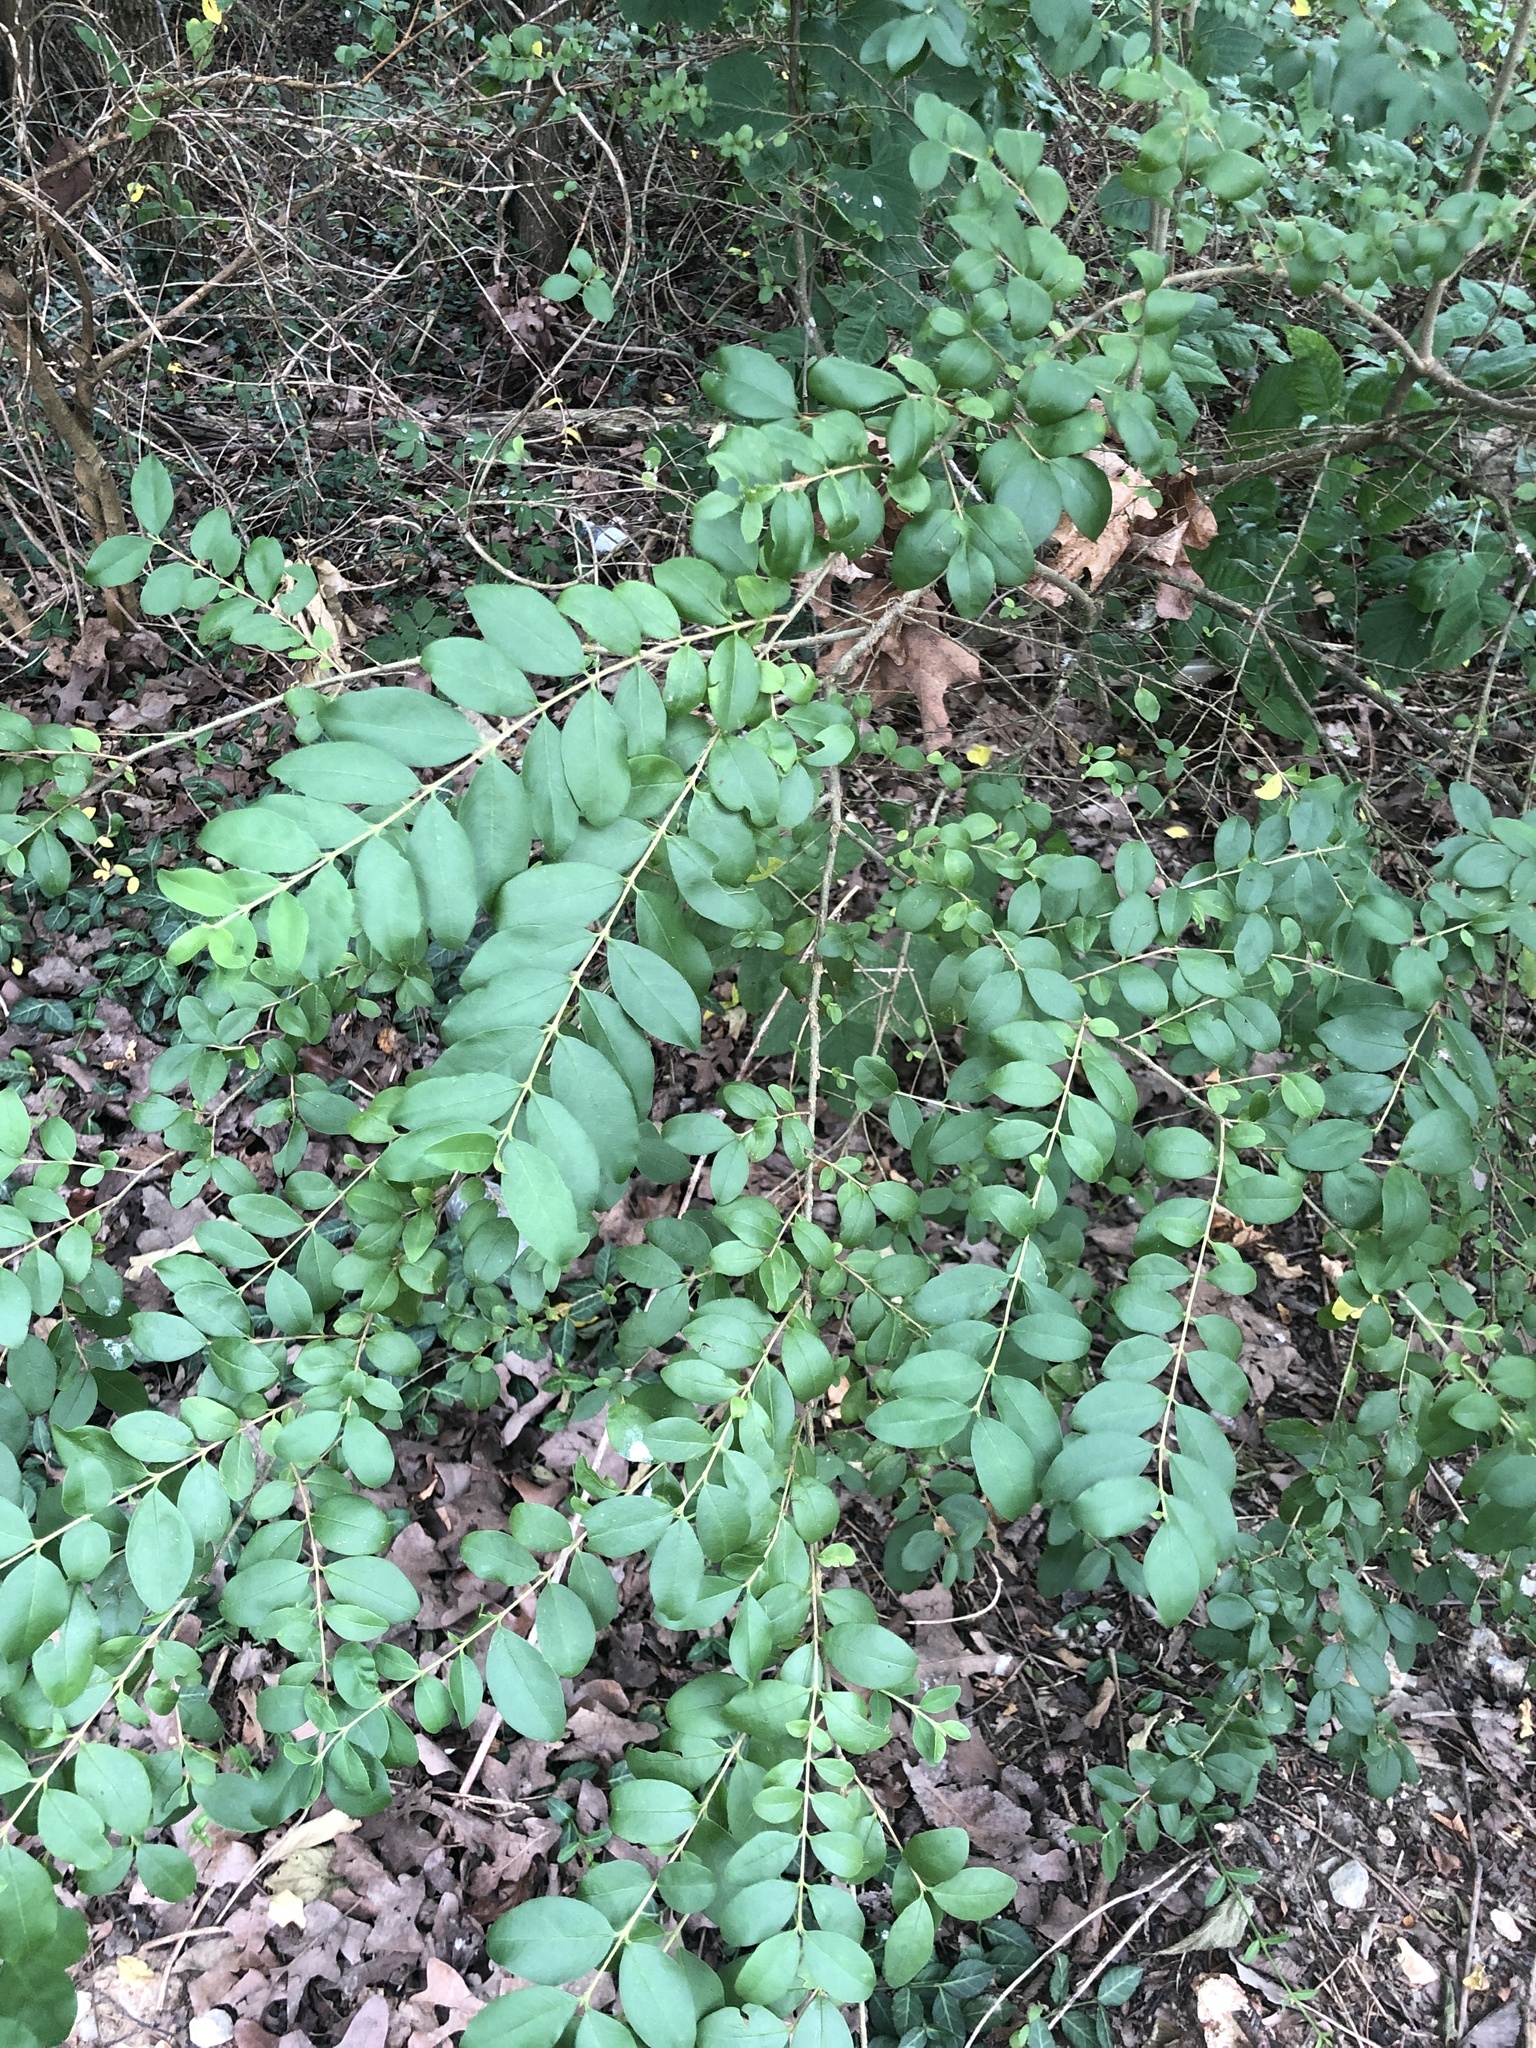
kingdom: Plantae
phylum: Tracheophyta
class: Magnoliopsida
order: Lamiales
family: Oleaceae
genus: Ligustrum
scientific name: Ligustrum sinense
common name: Chinese privet
